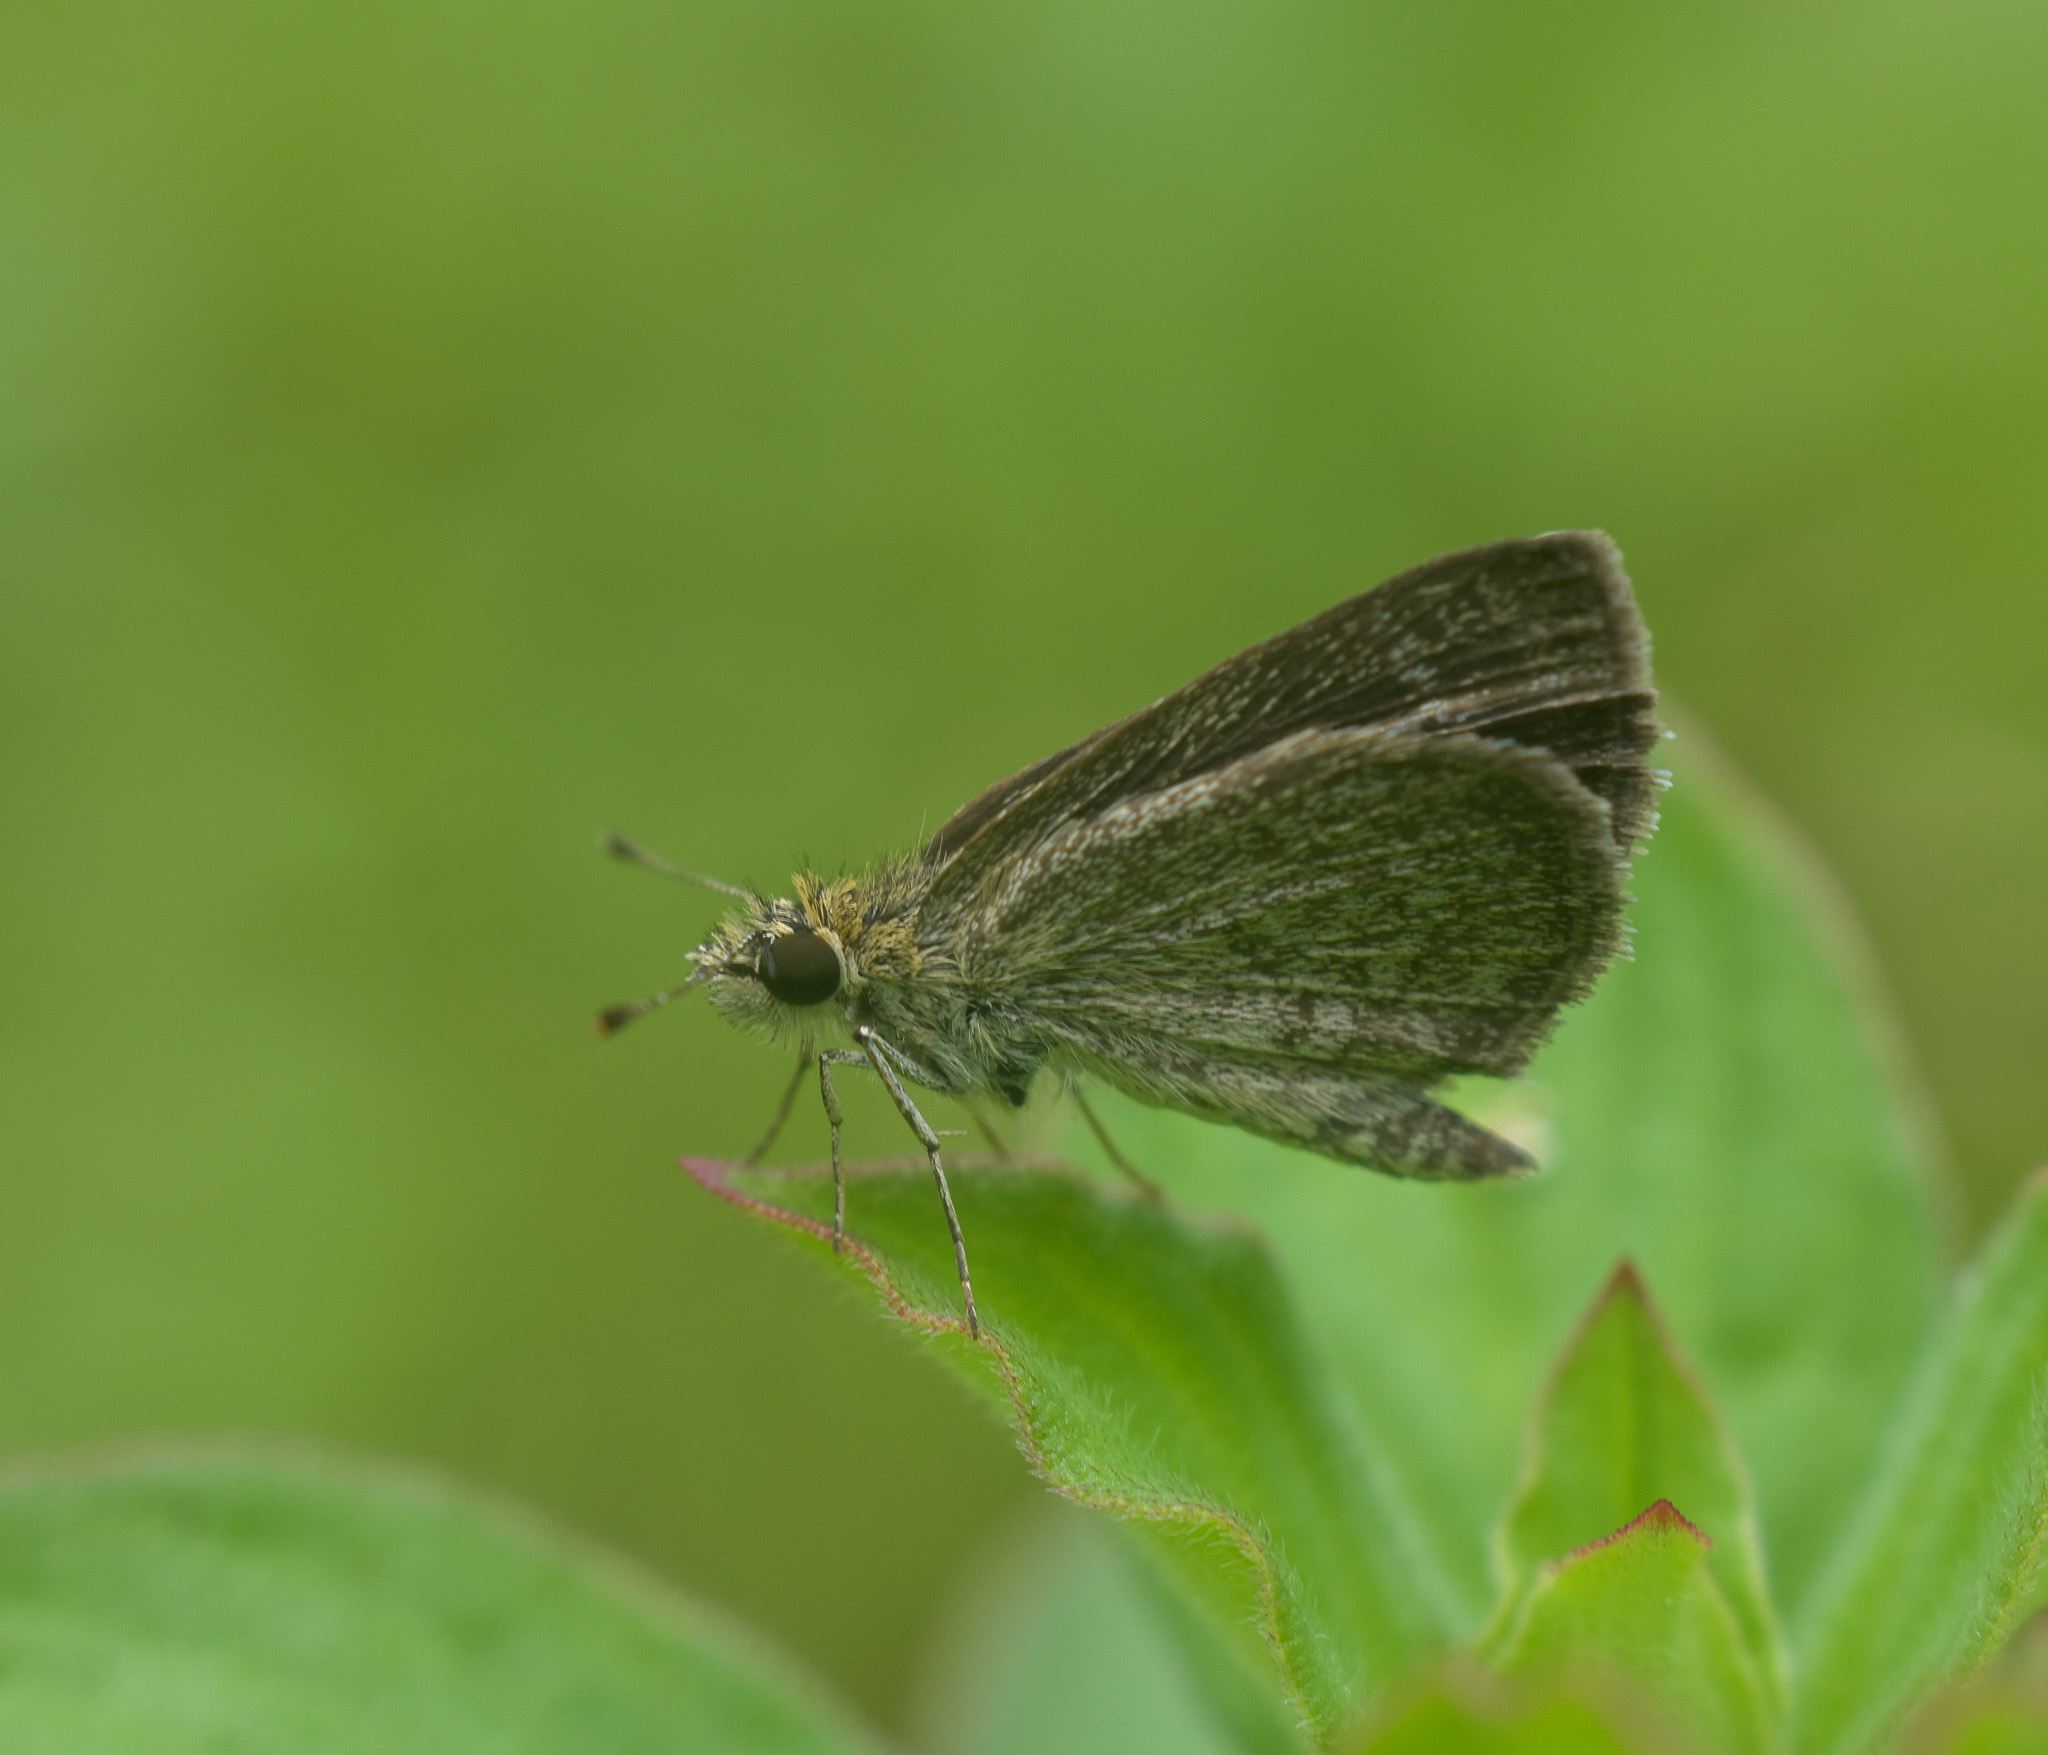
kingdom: Animalia
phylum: Arthropoda
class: Insecta
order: Lepidoptera
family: Hesperiidae
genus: Aeromachus
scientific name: Aeromachus pygmaeus
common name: Pygmy scrub hopper
